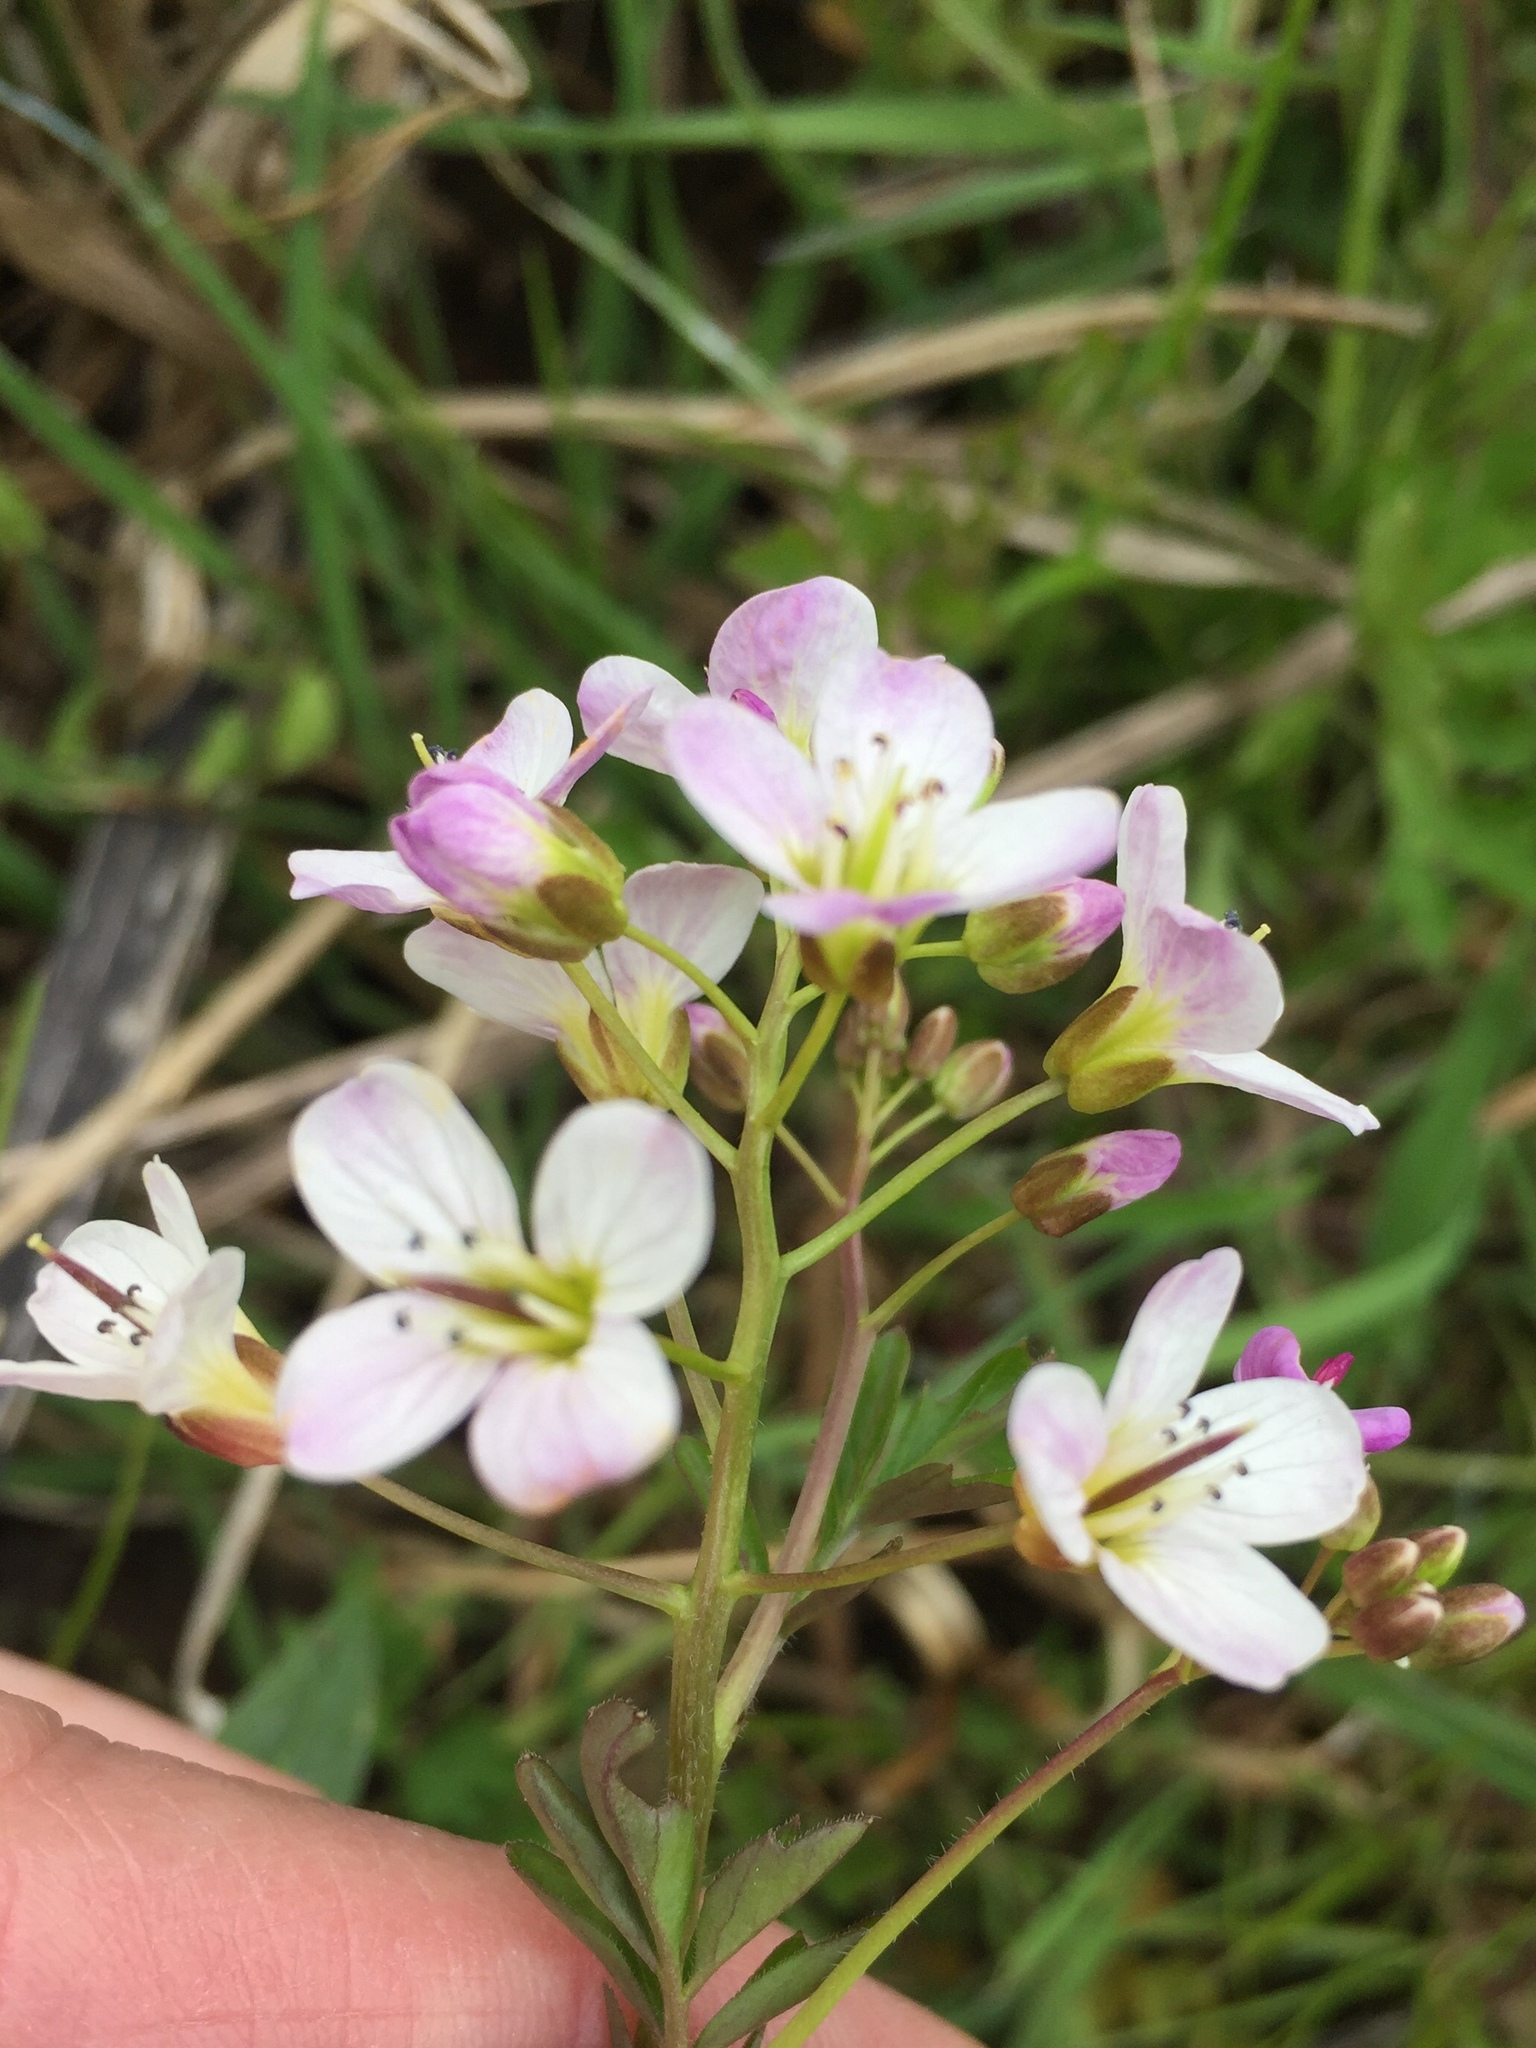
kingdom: Plantae
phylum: Tracheophyta
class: Magnoliopsida
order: Brassicales
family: Brassicaceae
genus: Cardamine
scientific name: Cardamine amara
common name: Large bitter-cress
